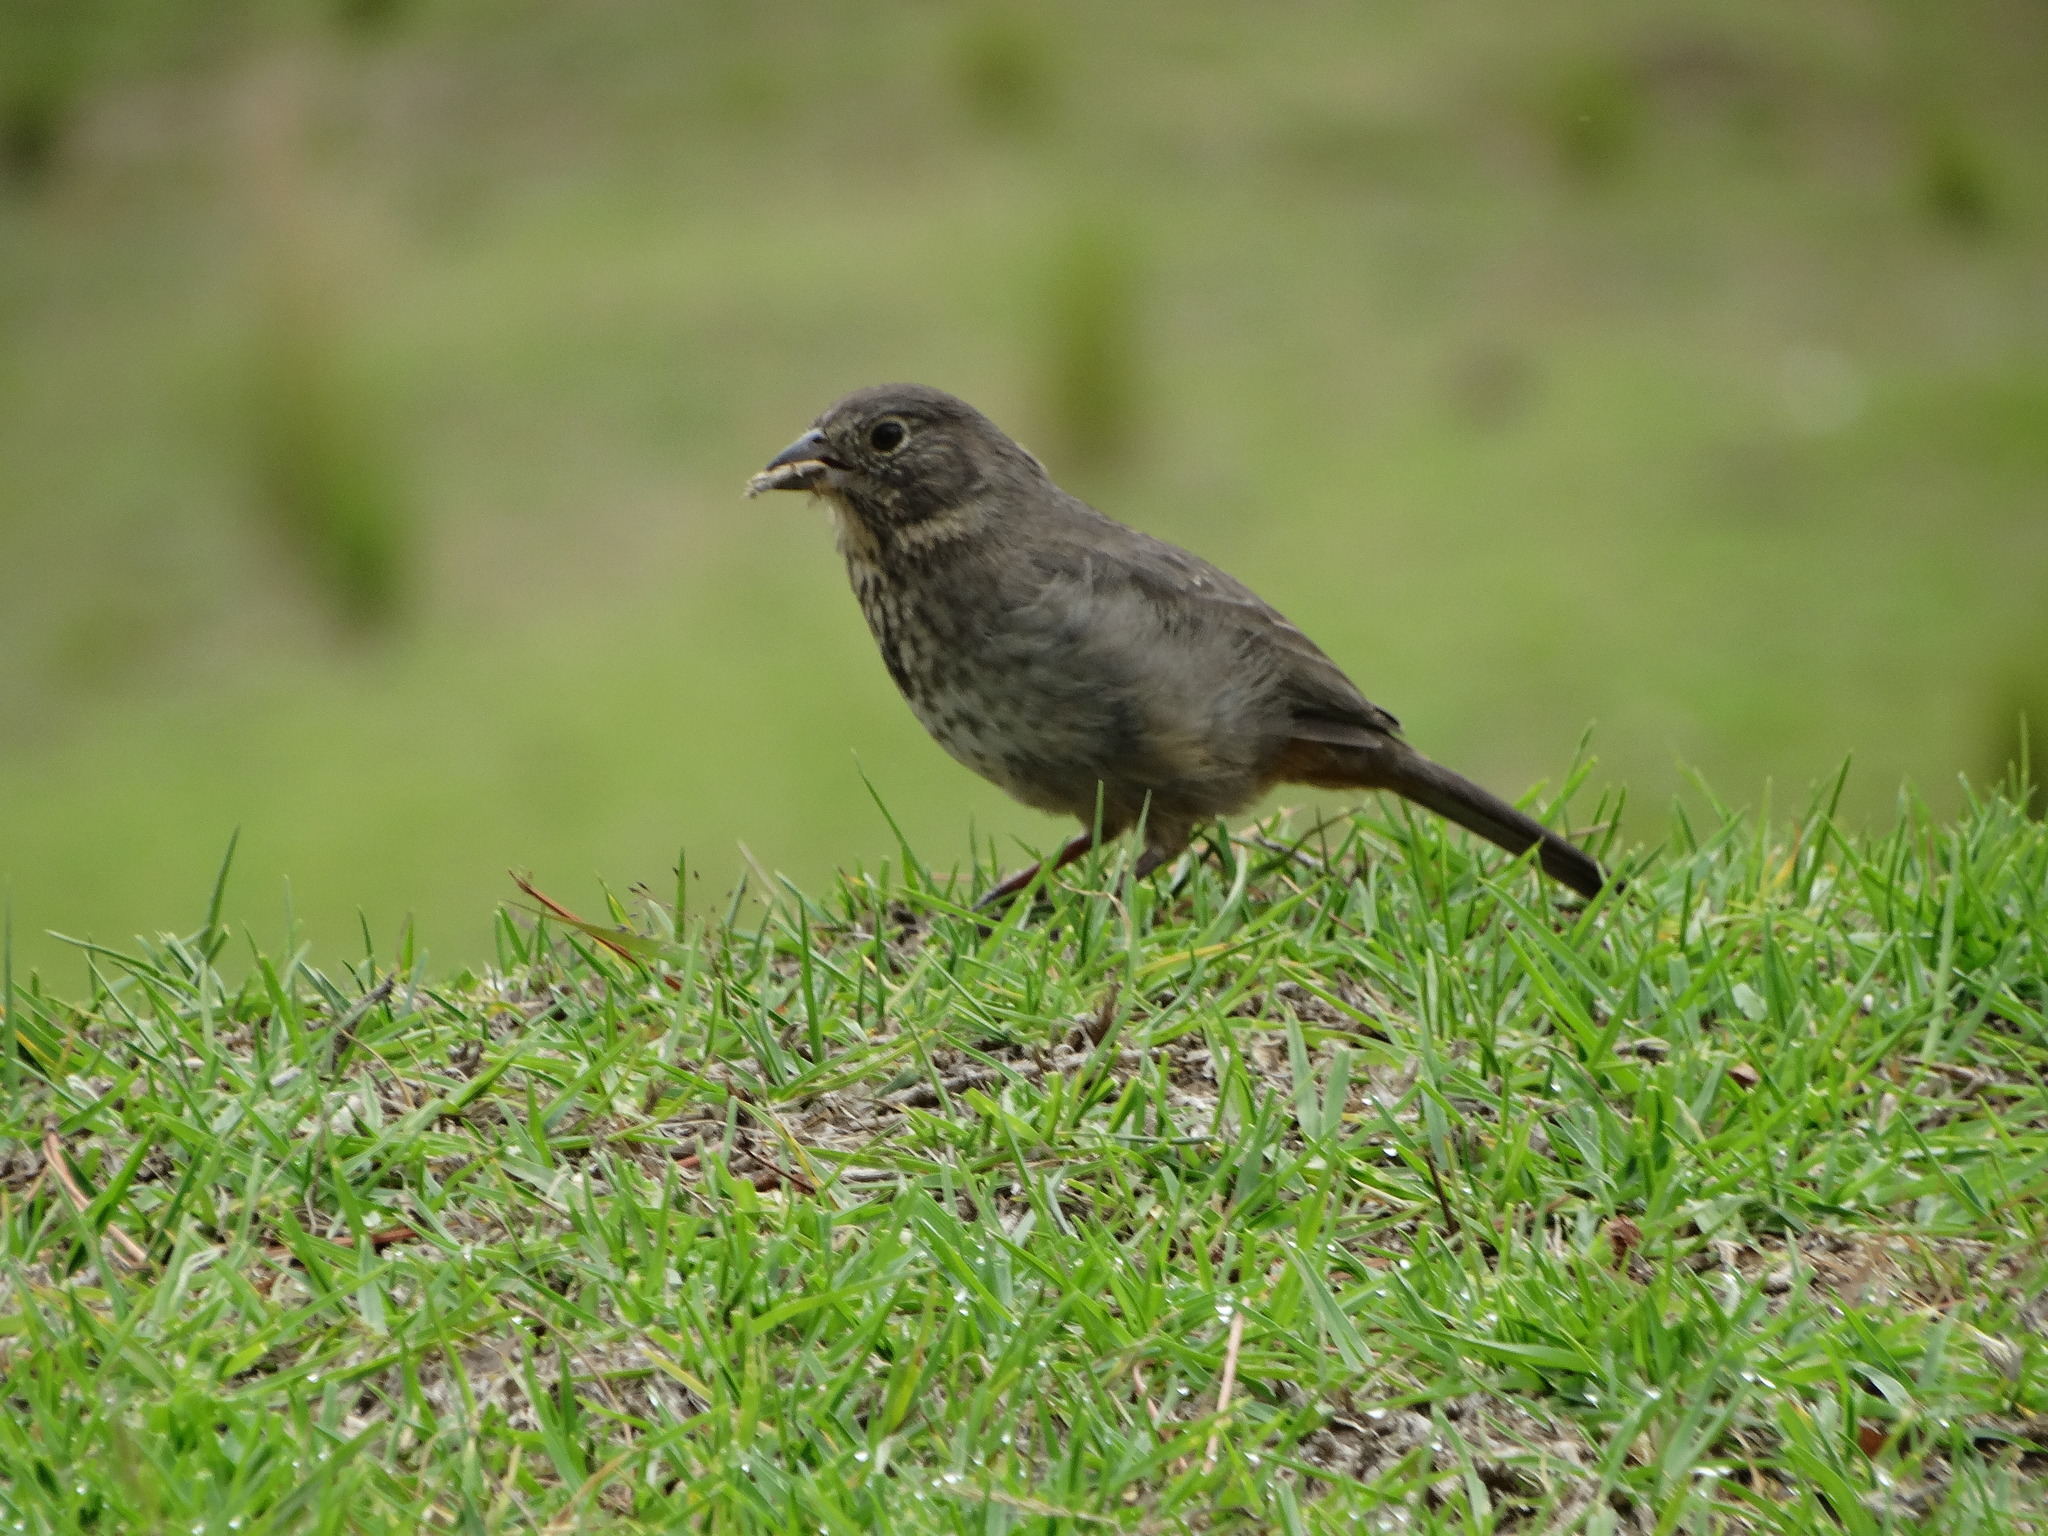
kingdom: Animalia
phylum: Chordata
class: Aves
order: Passeriformes
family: Passerellidae
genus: Melozone
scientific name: Melozone fusca
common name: Canyon towhee
